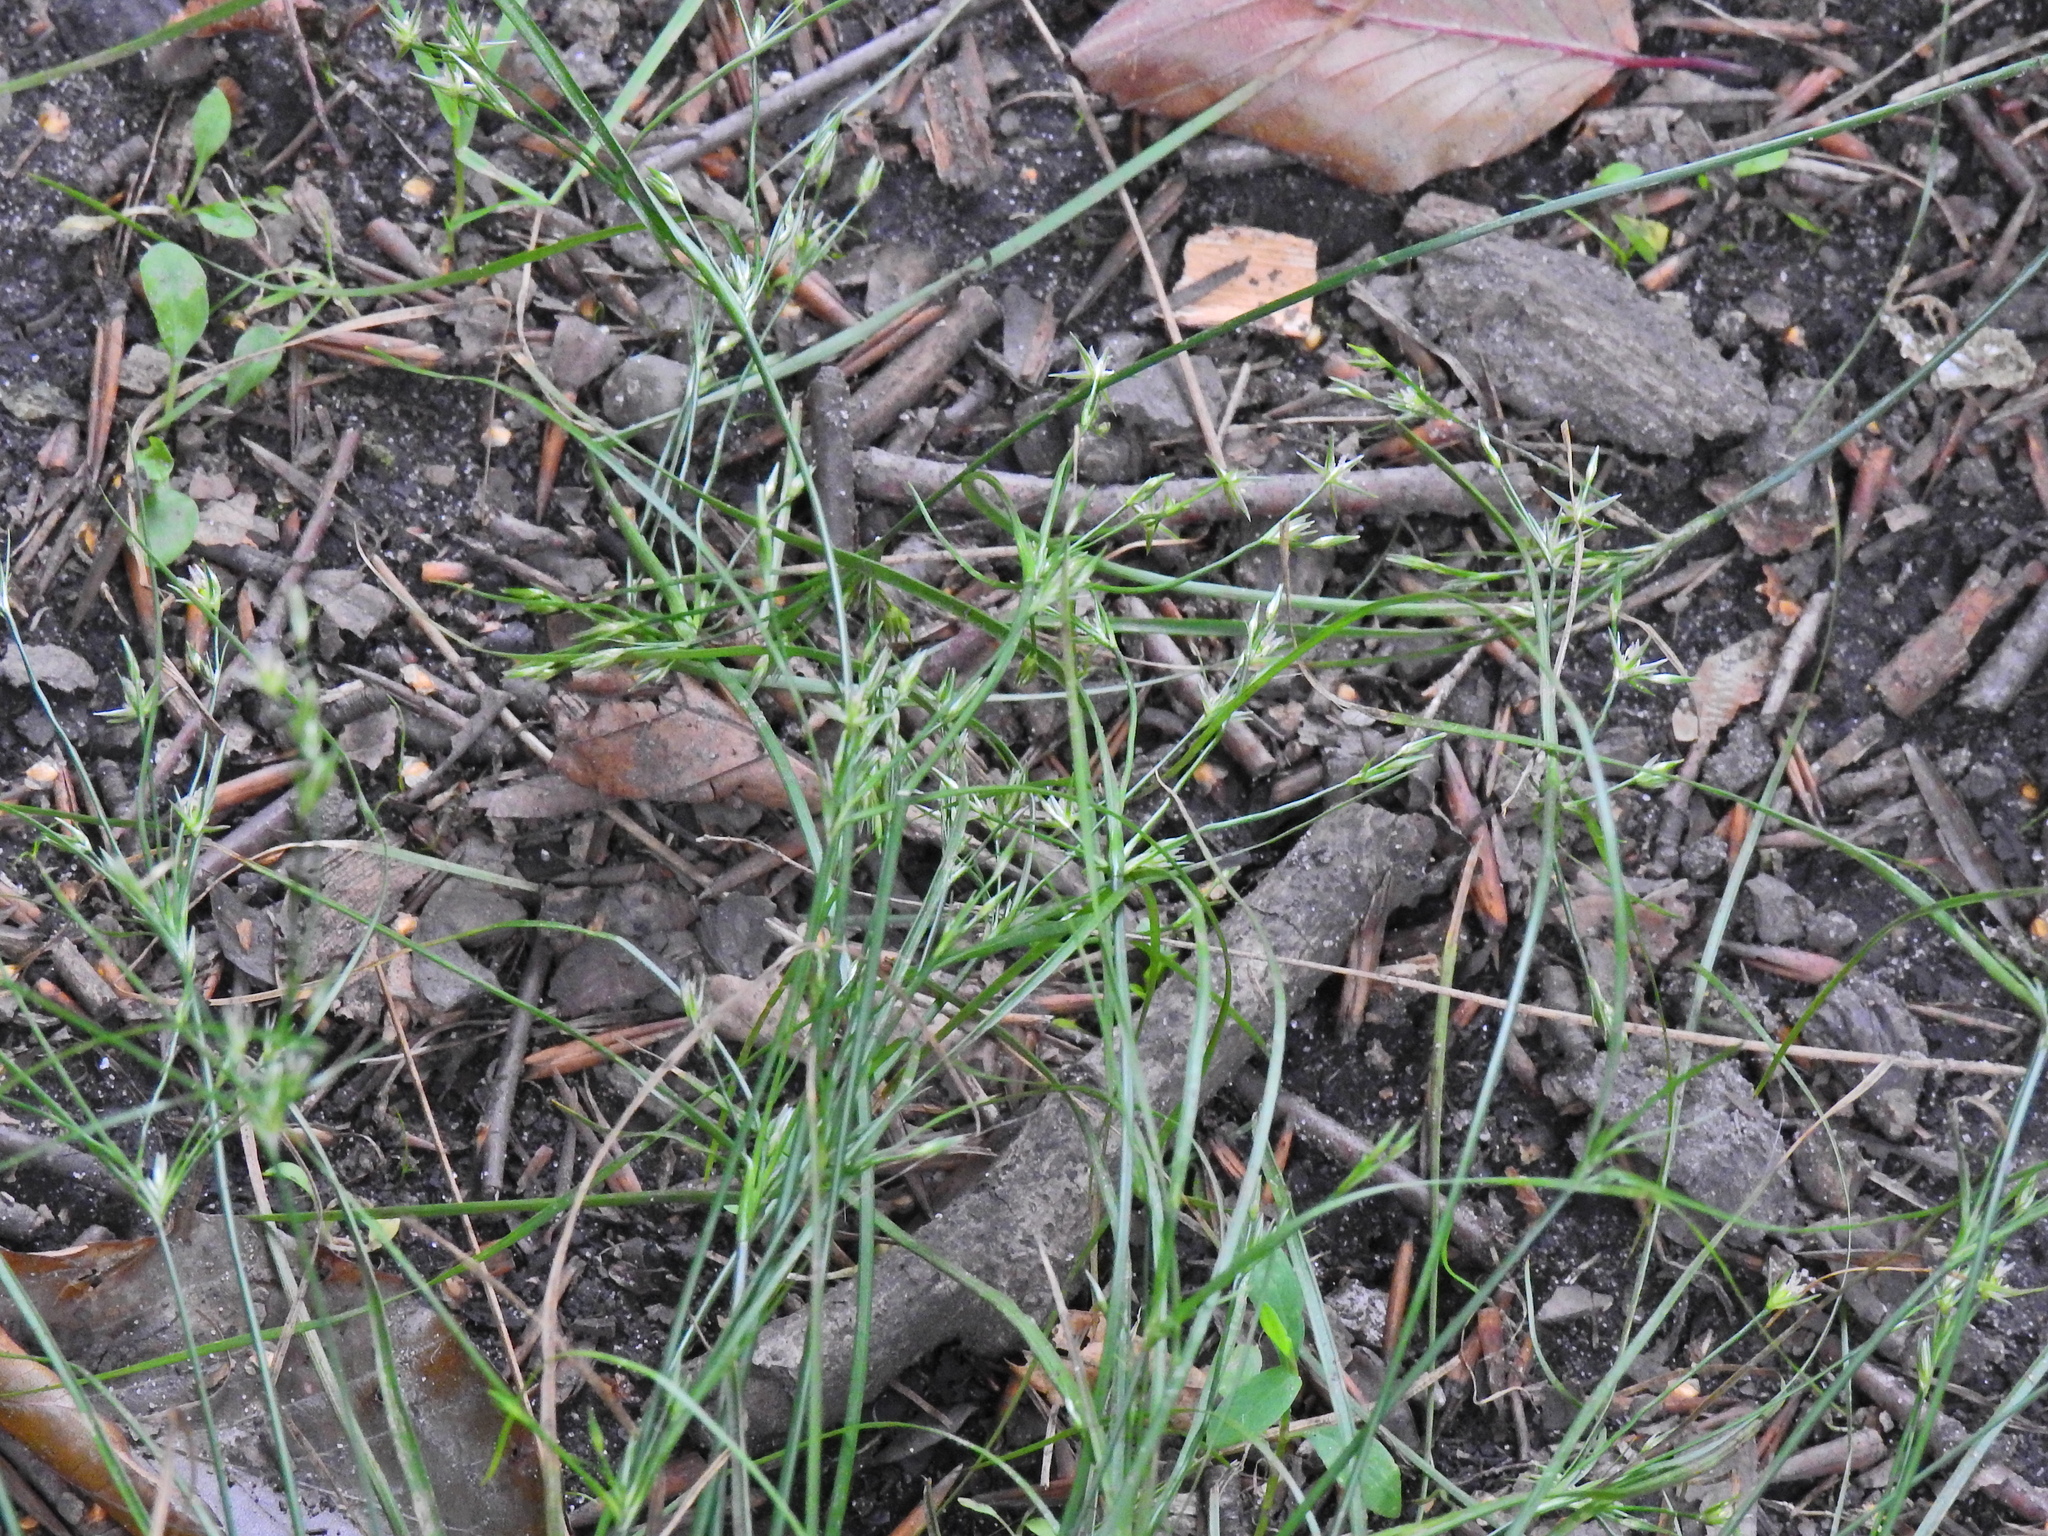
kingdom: Plantae
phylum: Tracheophyta
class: Liliopsida
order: Poales
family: Juncaceae
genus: Juncus
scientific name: Juncus tenuis
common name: Slender rush
